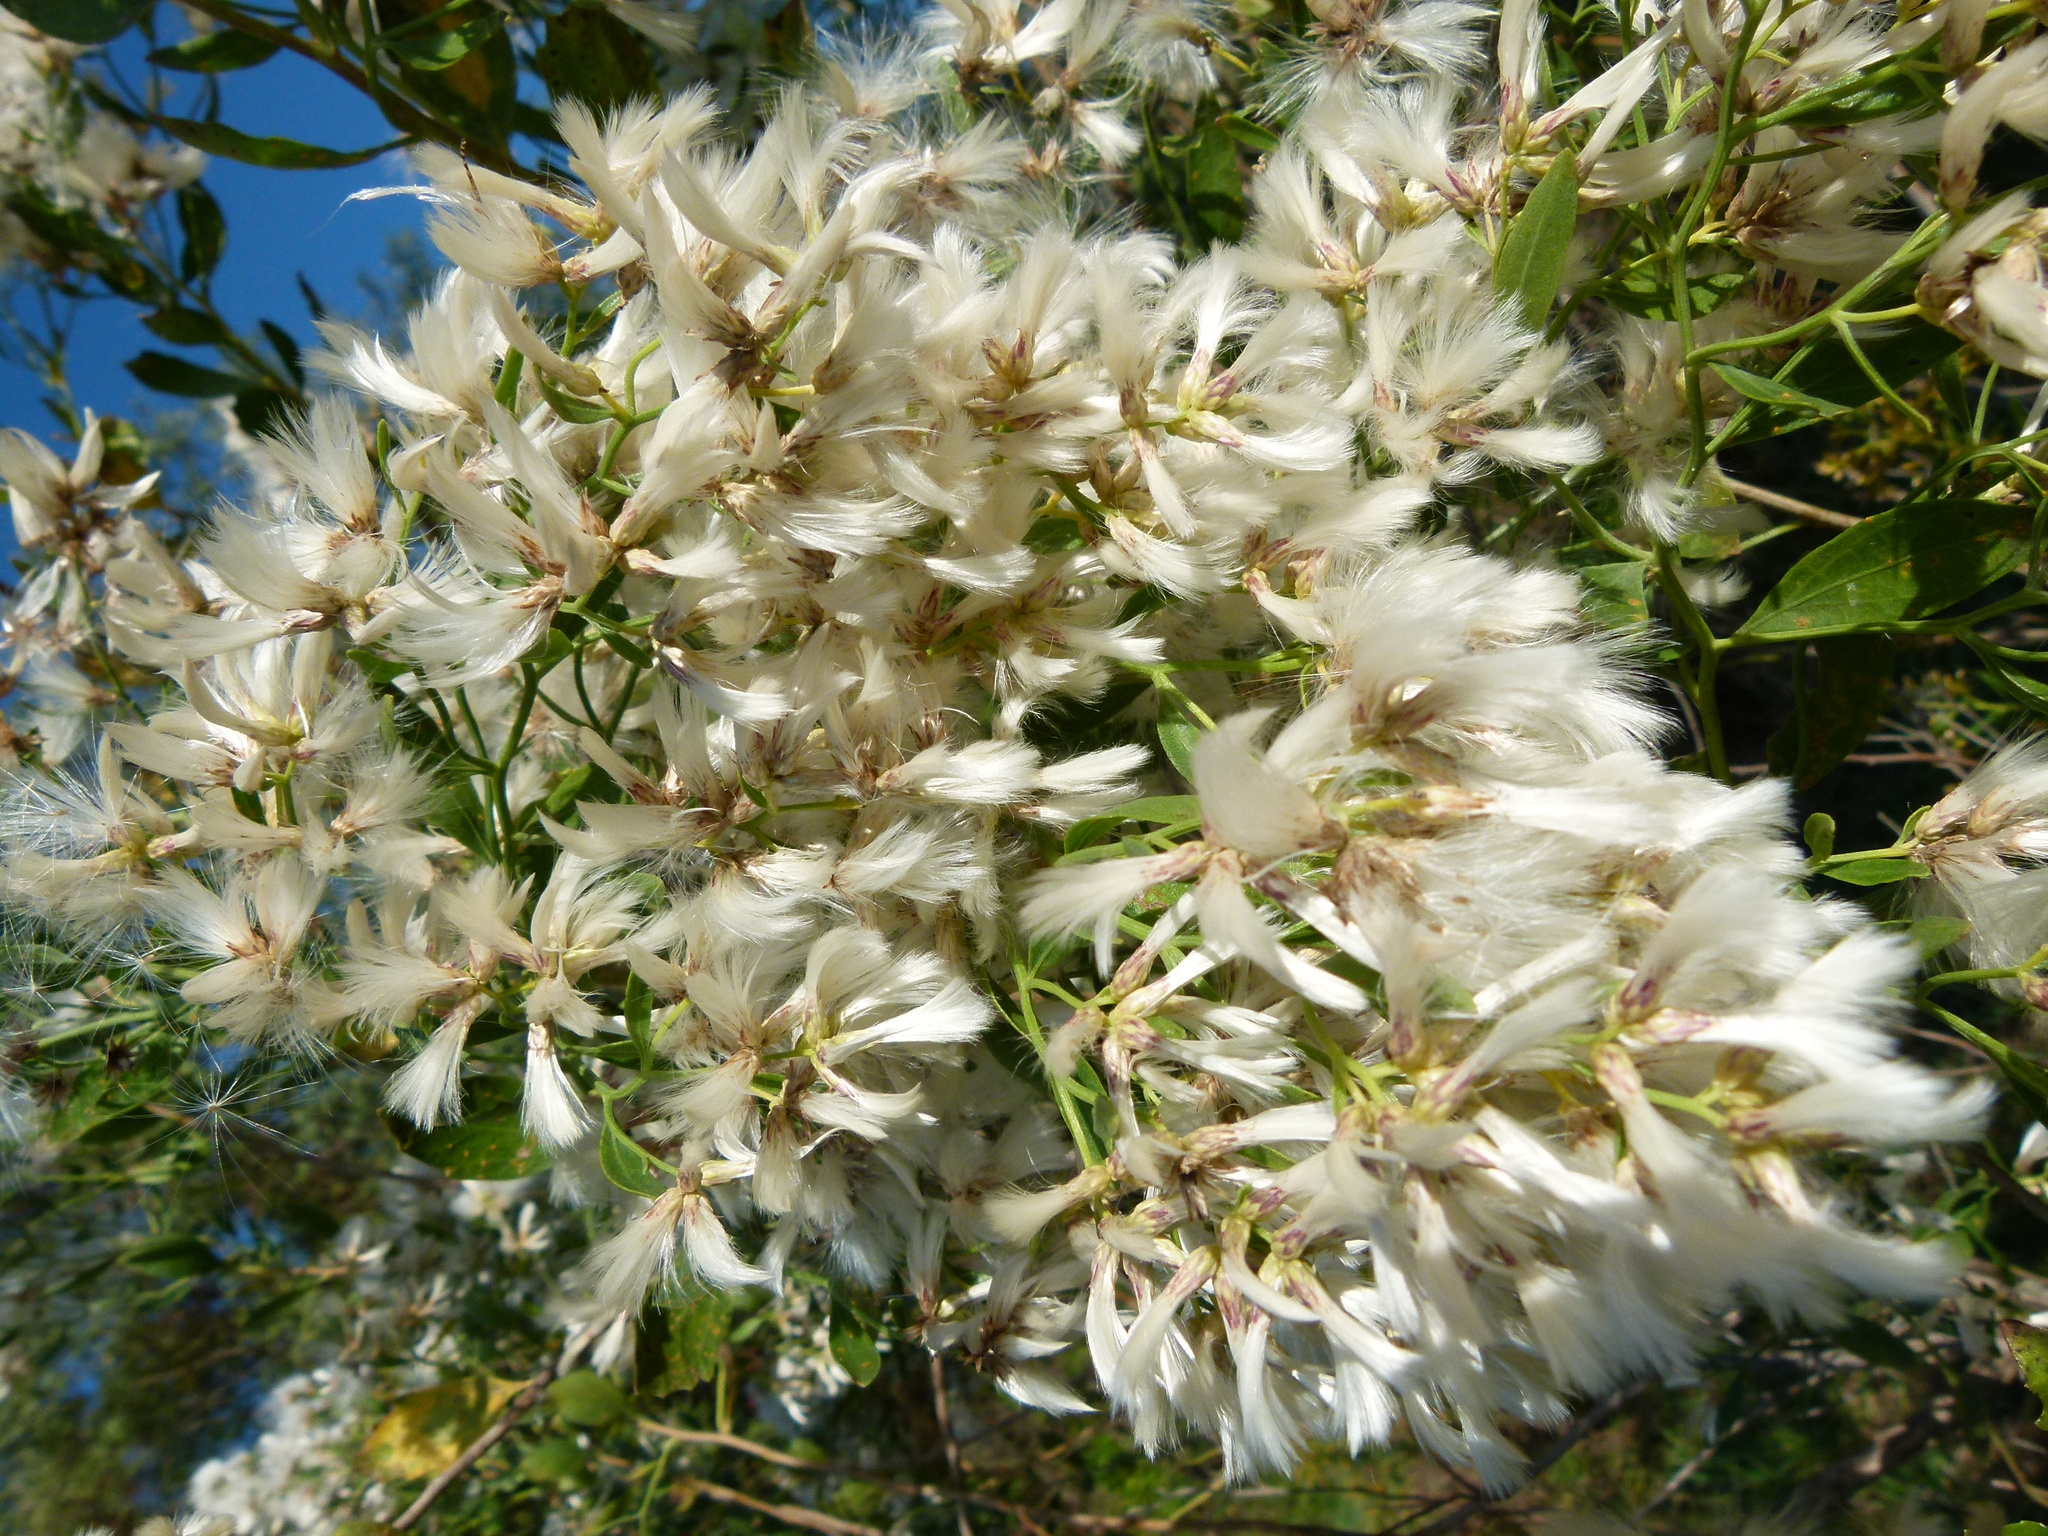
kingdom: Plantae
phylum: Tracheophyta
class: Magnoliopsida
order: Asterales
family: Asteraceae
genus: Baccharis
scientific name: Baccharis halimifolia
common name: Eastern baccharis
